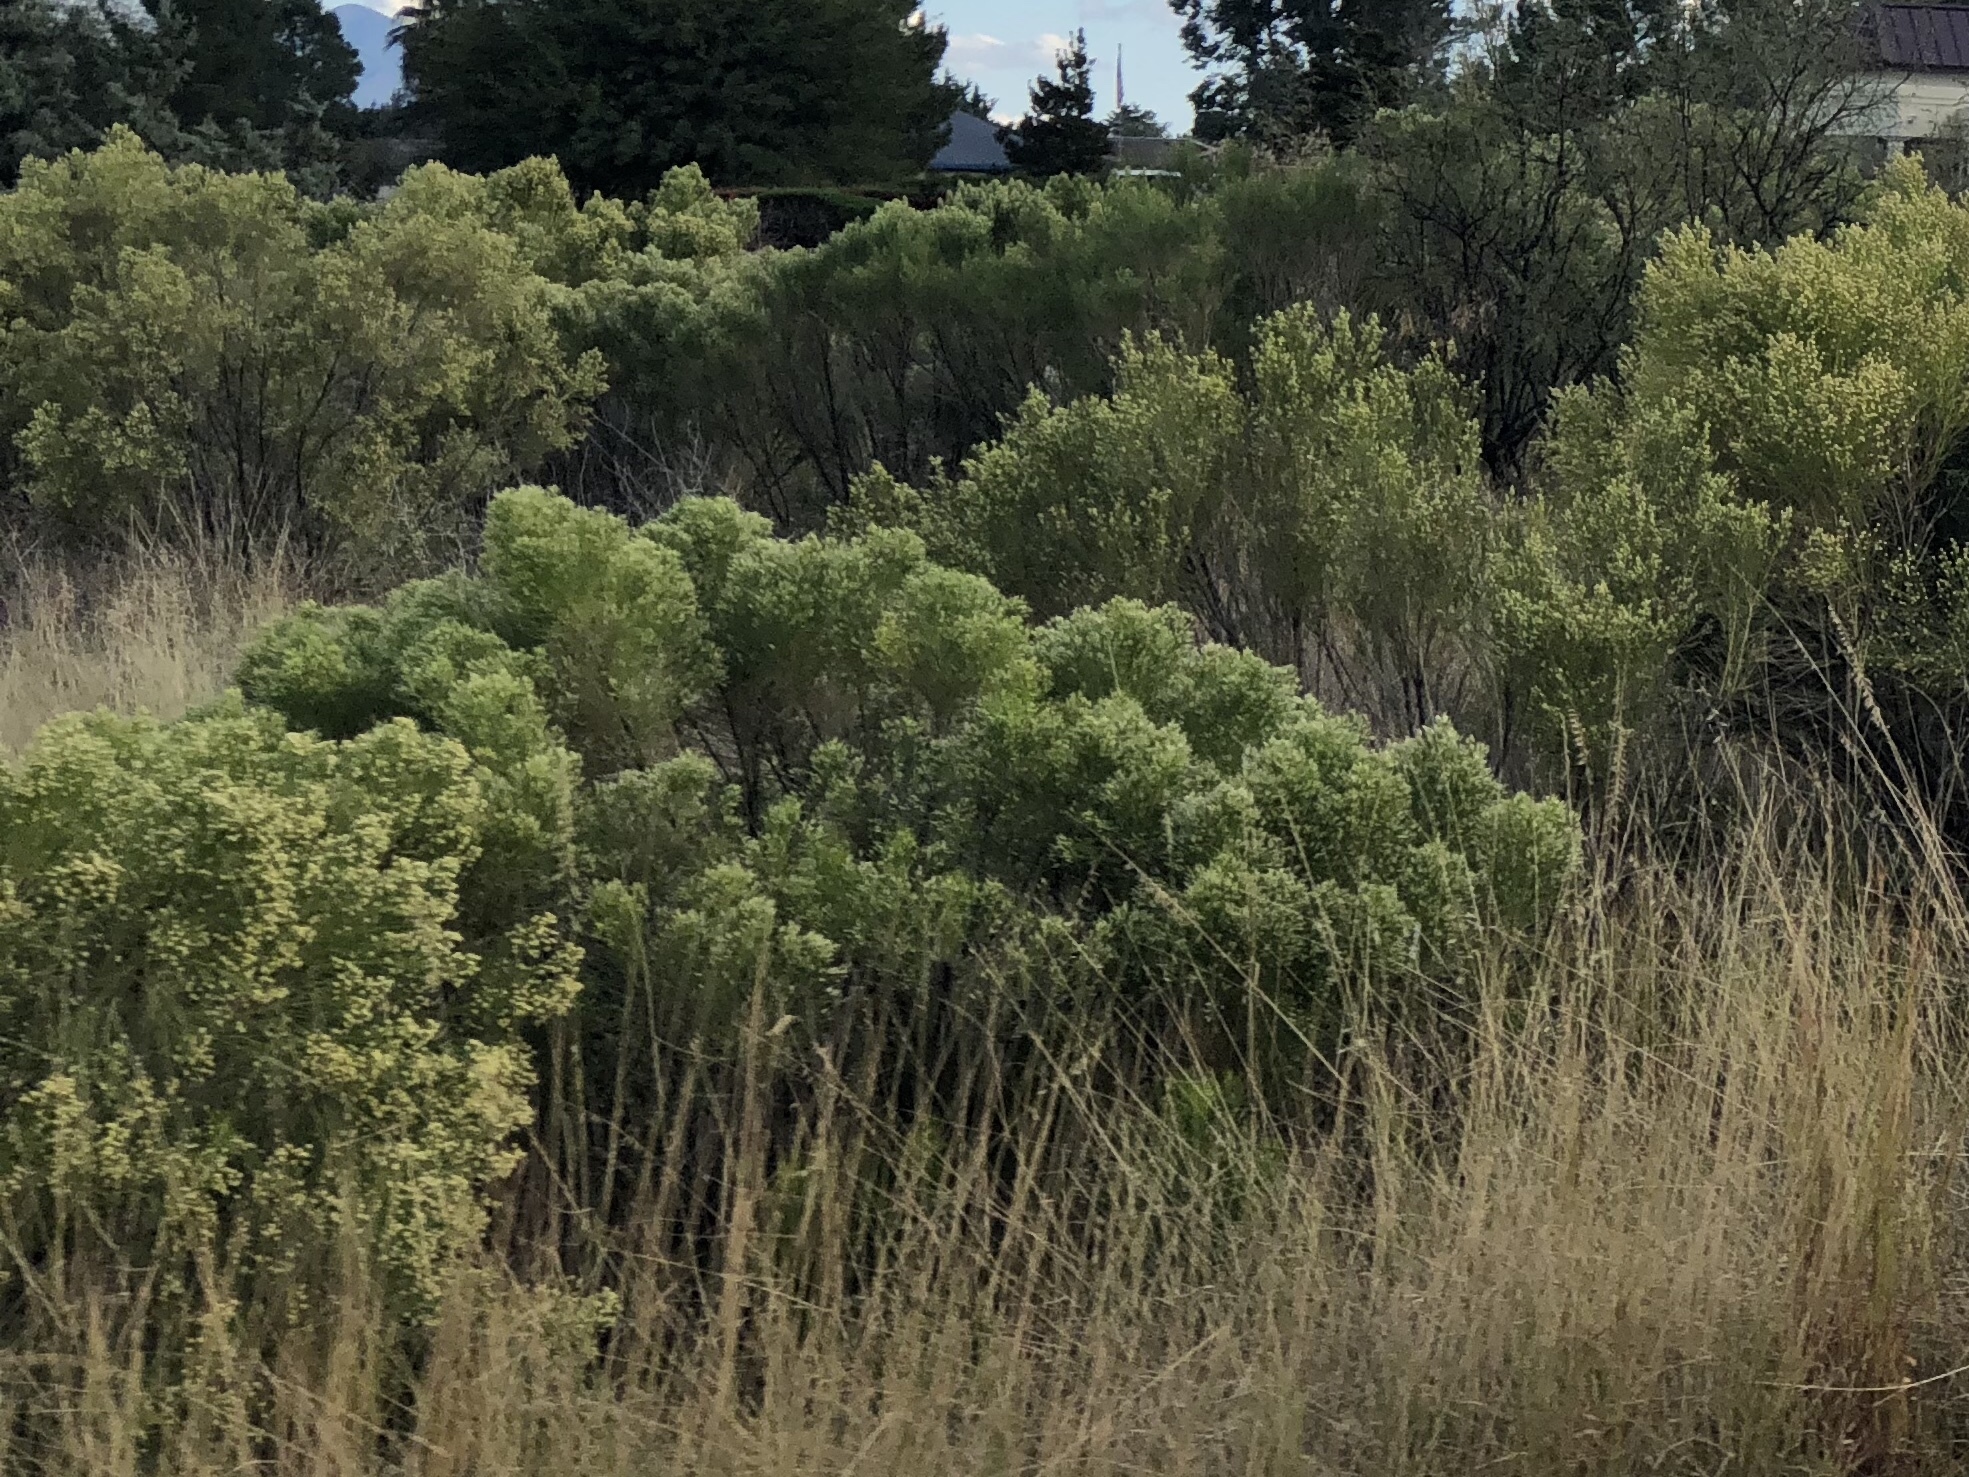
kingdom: Plantae
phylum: Tracheophyta
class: Magnoliopsida
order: Asterales
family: Asteraceae
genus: Baccharis
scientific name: Baccharis sarothroides
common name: Desert-broom
